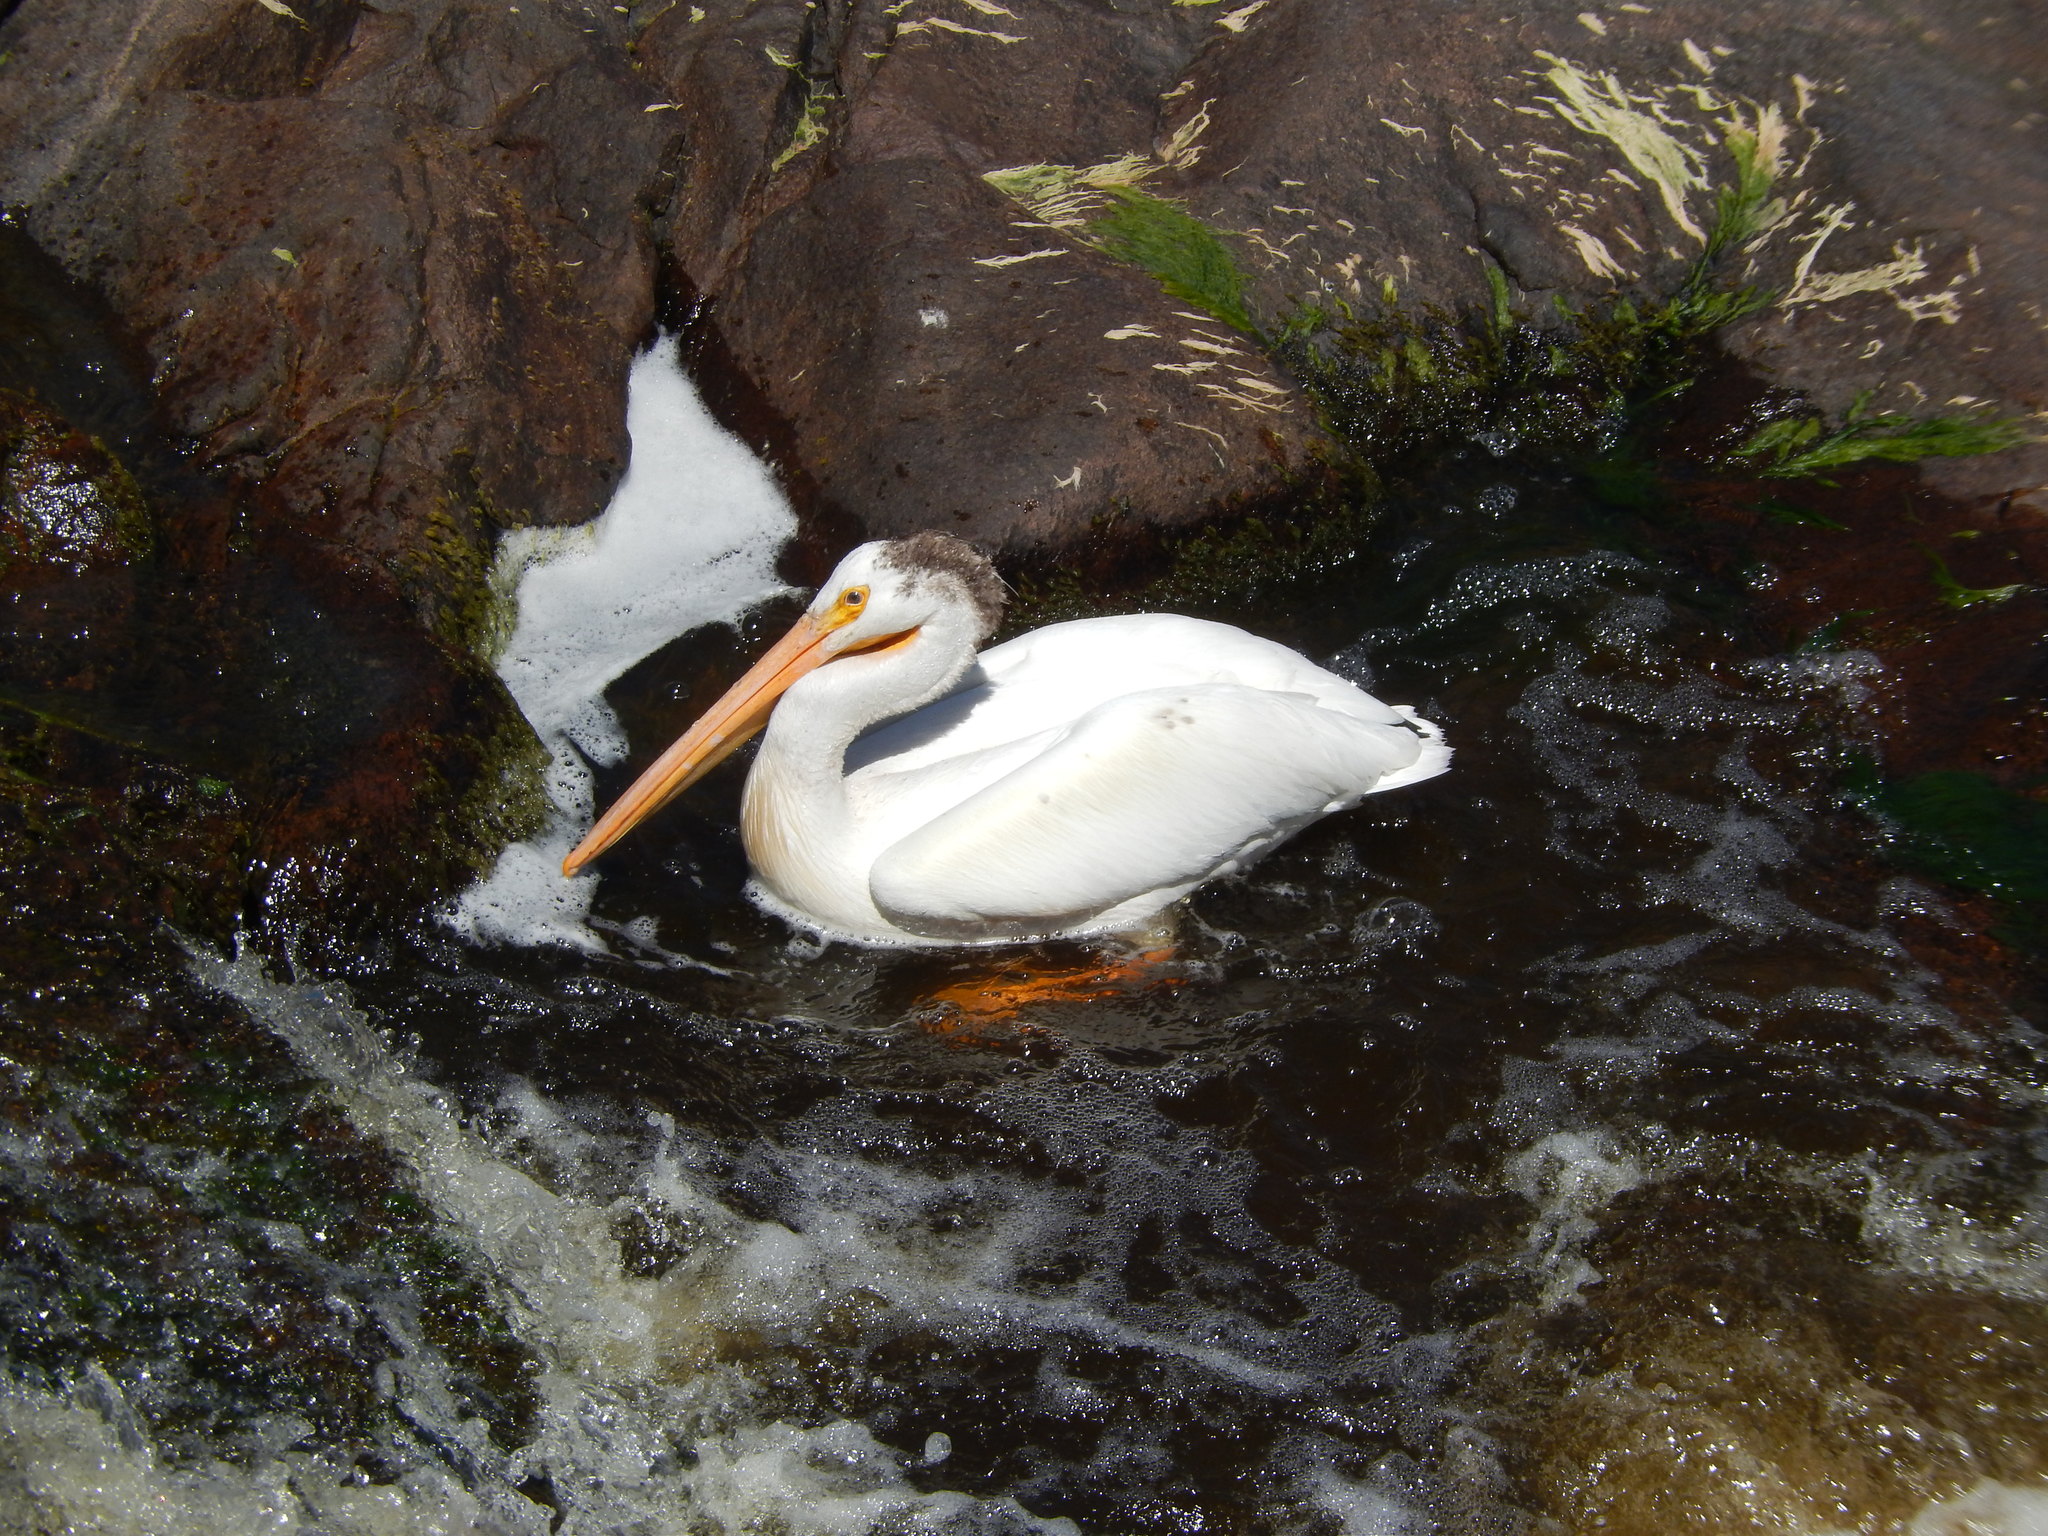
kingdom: Animalia
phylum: Chordata
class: Aves
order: Pelecaniformes
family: Pelecanidae
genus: Pelecanus
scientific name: Pelecanus erythrorhynchos
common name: American white pelican
